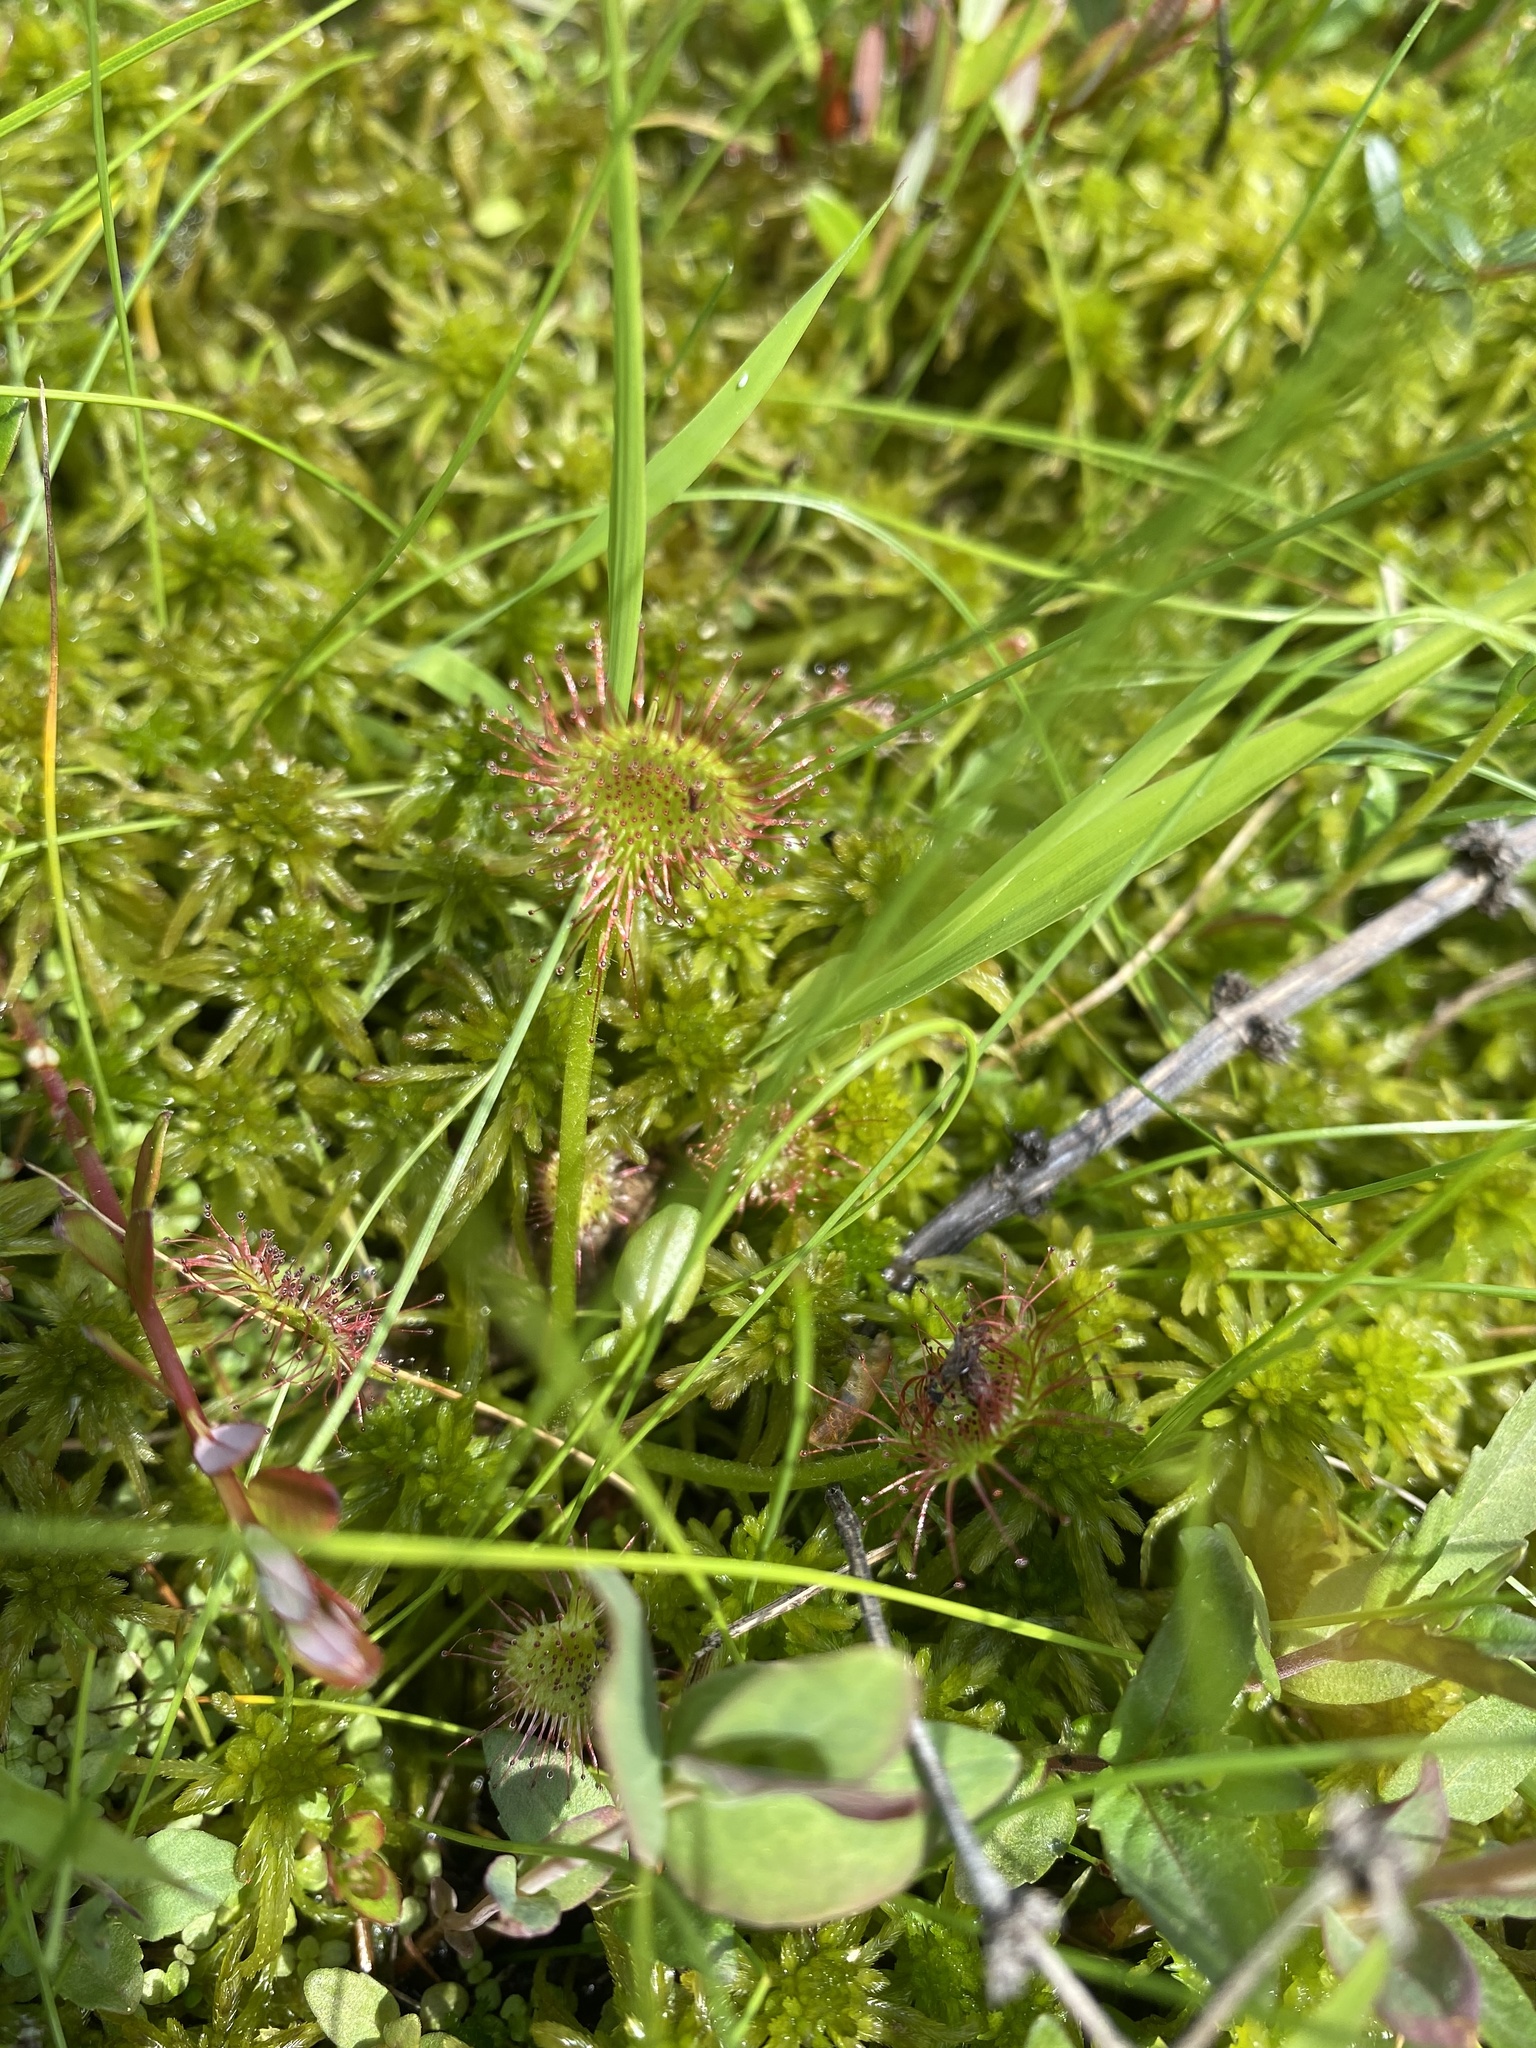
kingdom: Plantae
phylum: Tracheophyta
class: Magnoliopsida
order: Caryophyllales
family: Droseraceae
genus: Drosera
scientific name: Drosera rotundifolia
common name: Round-leaved sundew
